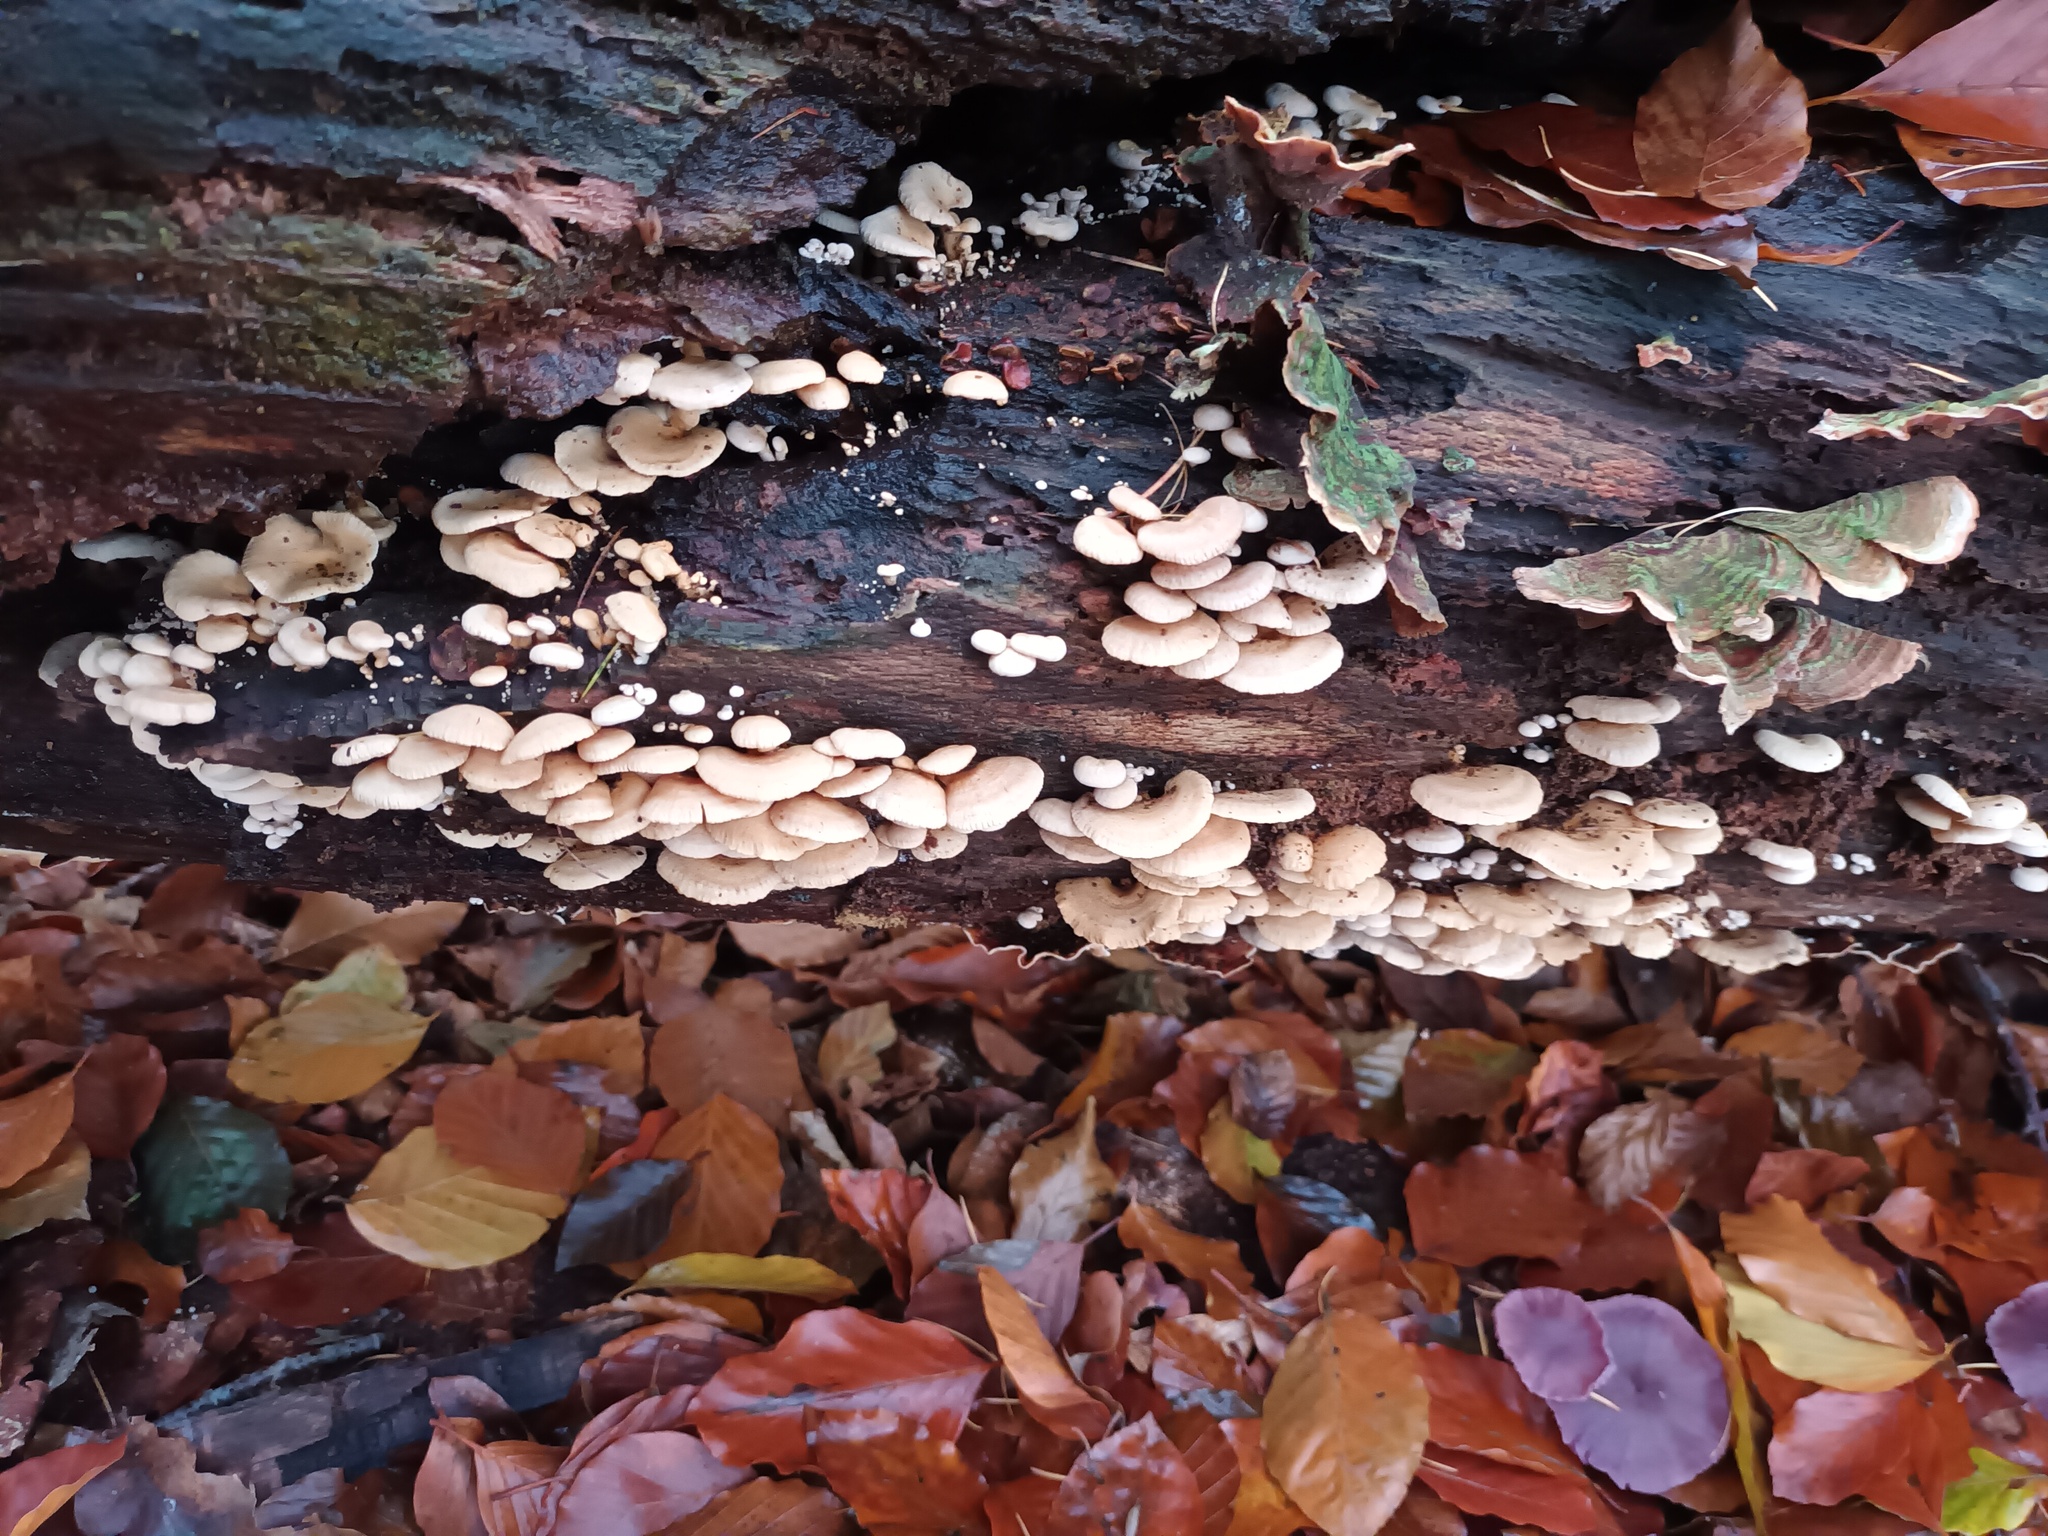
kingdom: Fungi
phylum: Basidiomycota
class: Agaricomycetes
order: Agaricales
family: Mycenaceae
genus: Panellus
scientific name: Panellus stipticus
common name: Bitter oysterling
